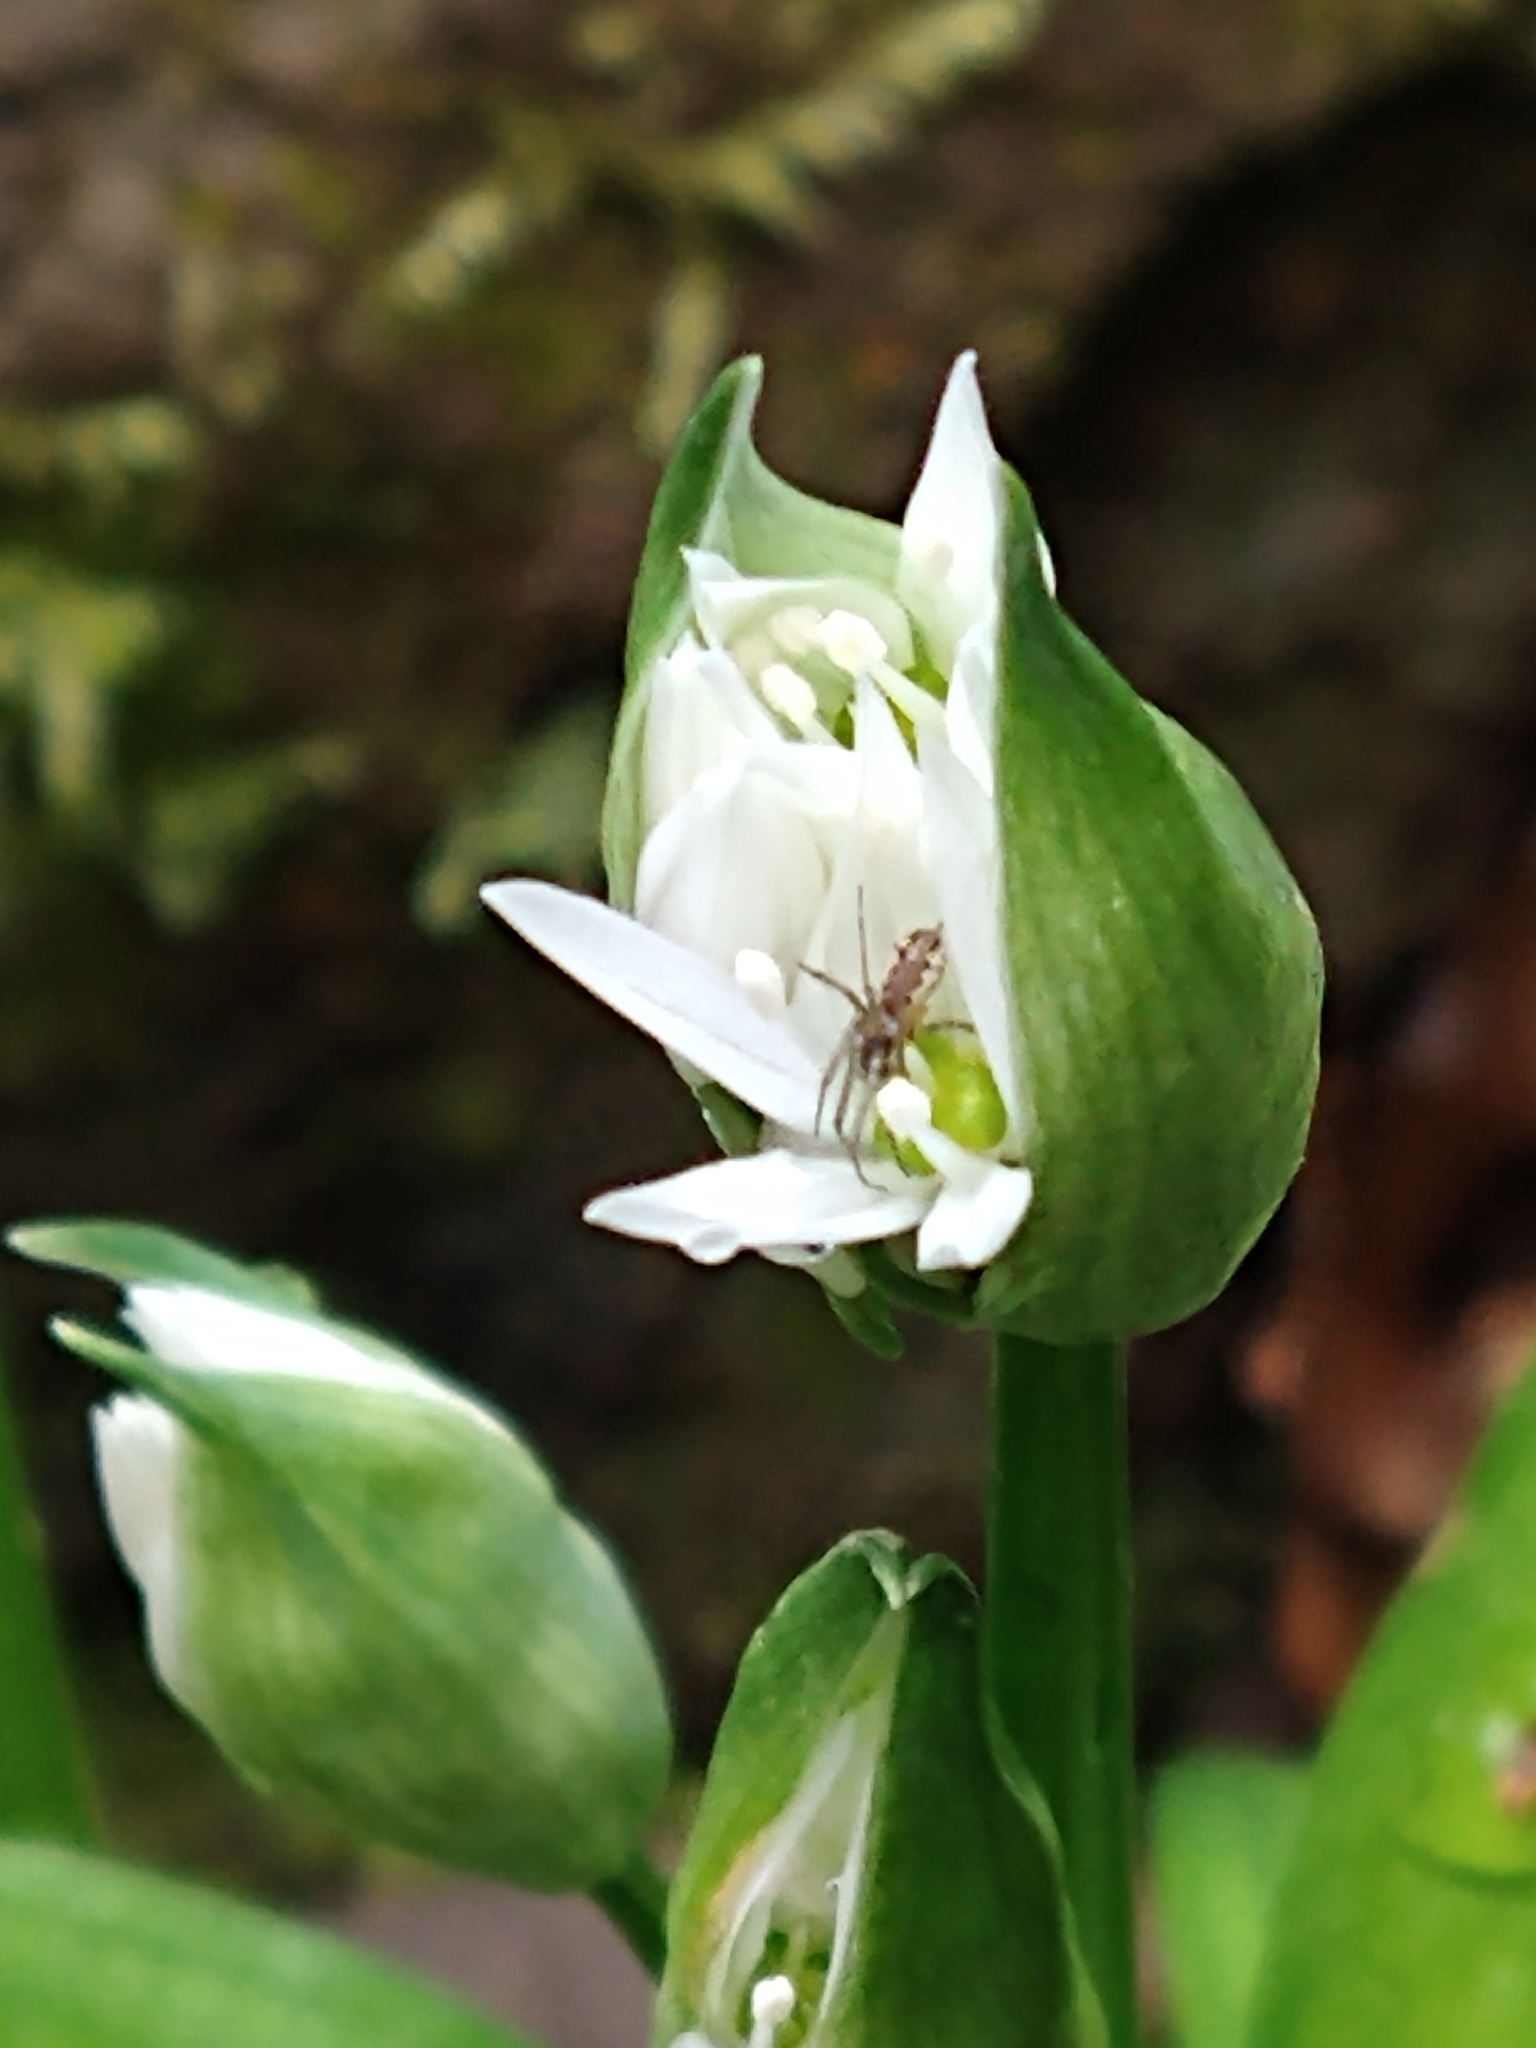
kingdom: Plantae
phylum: Tracheophyta
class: Liliopsida
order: Asparagales
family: Amaryllidaceae
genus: Allium
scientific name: Allium ursinum
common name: Ramsons
